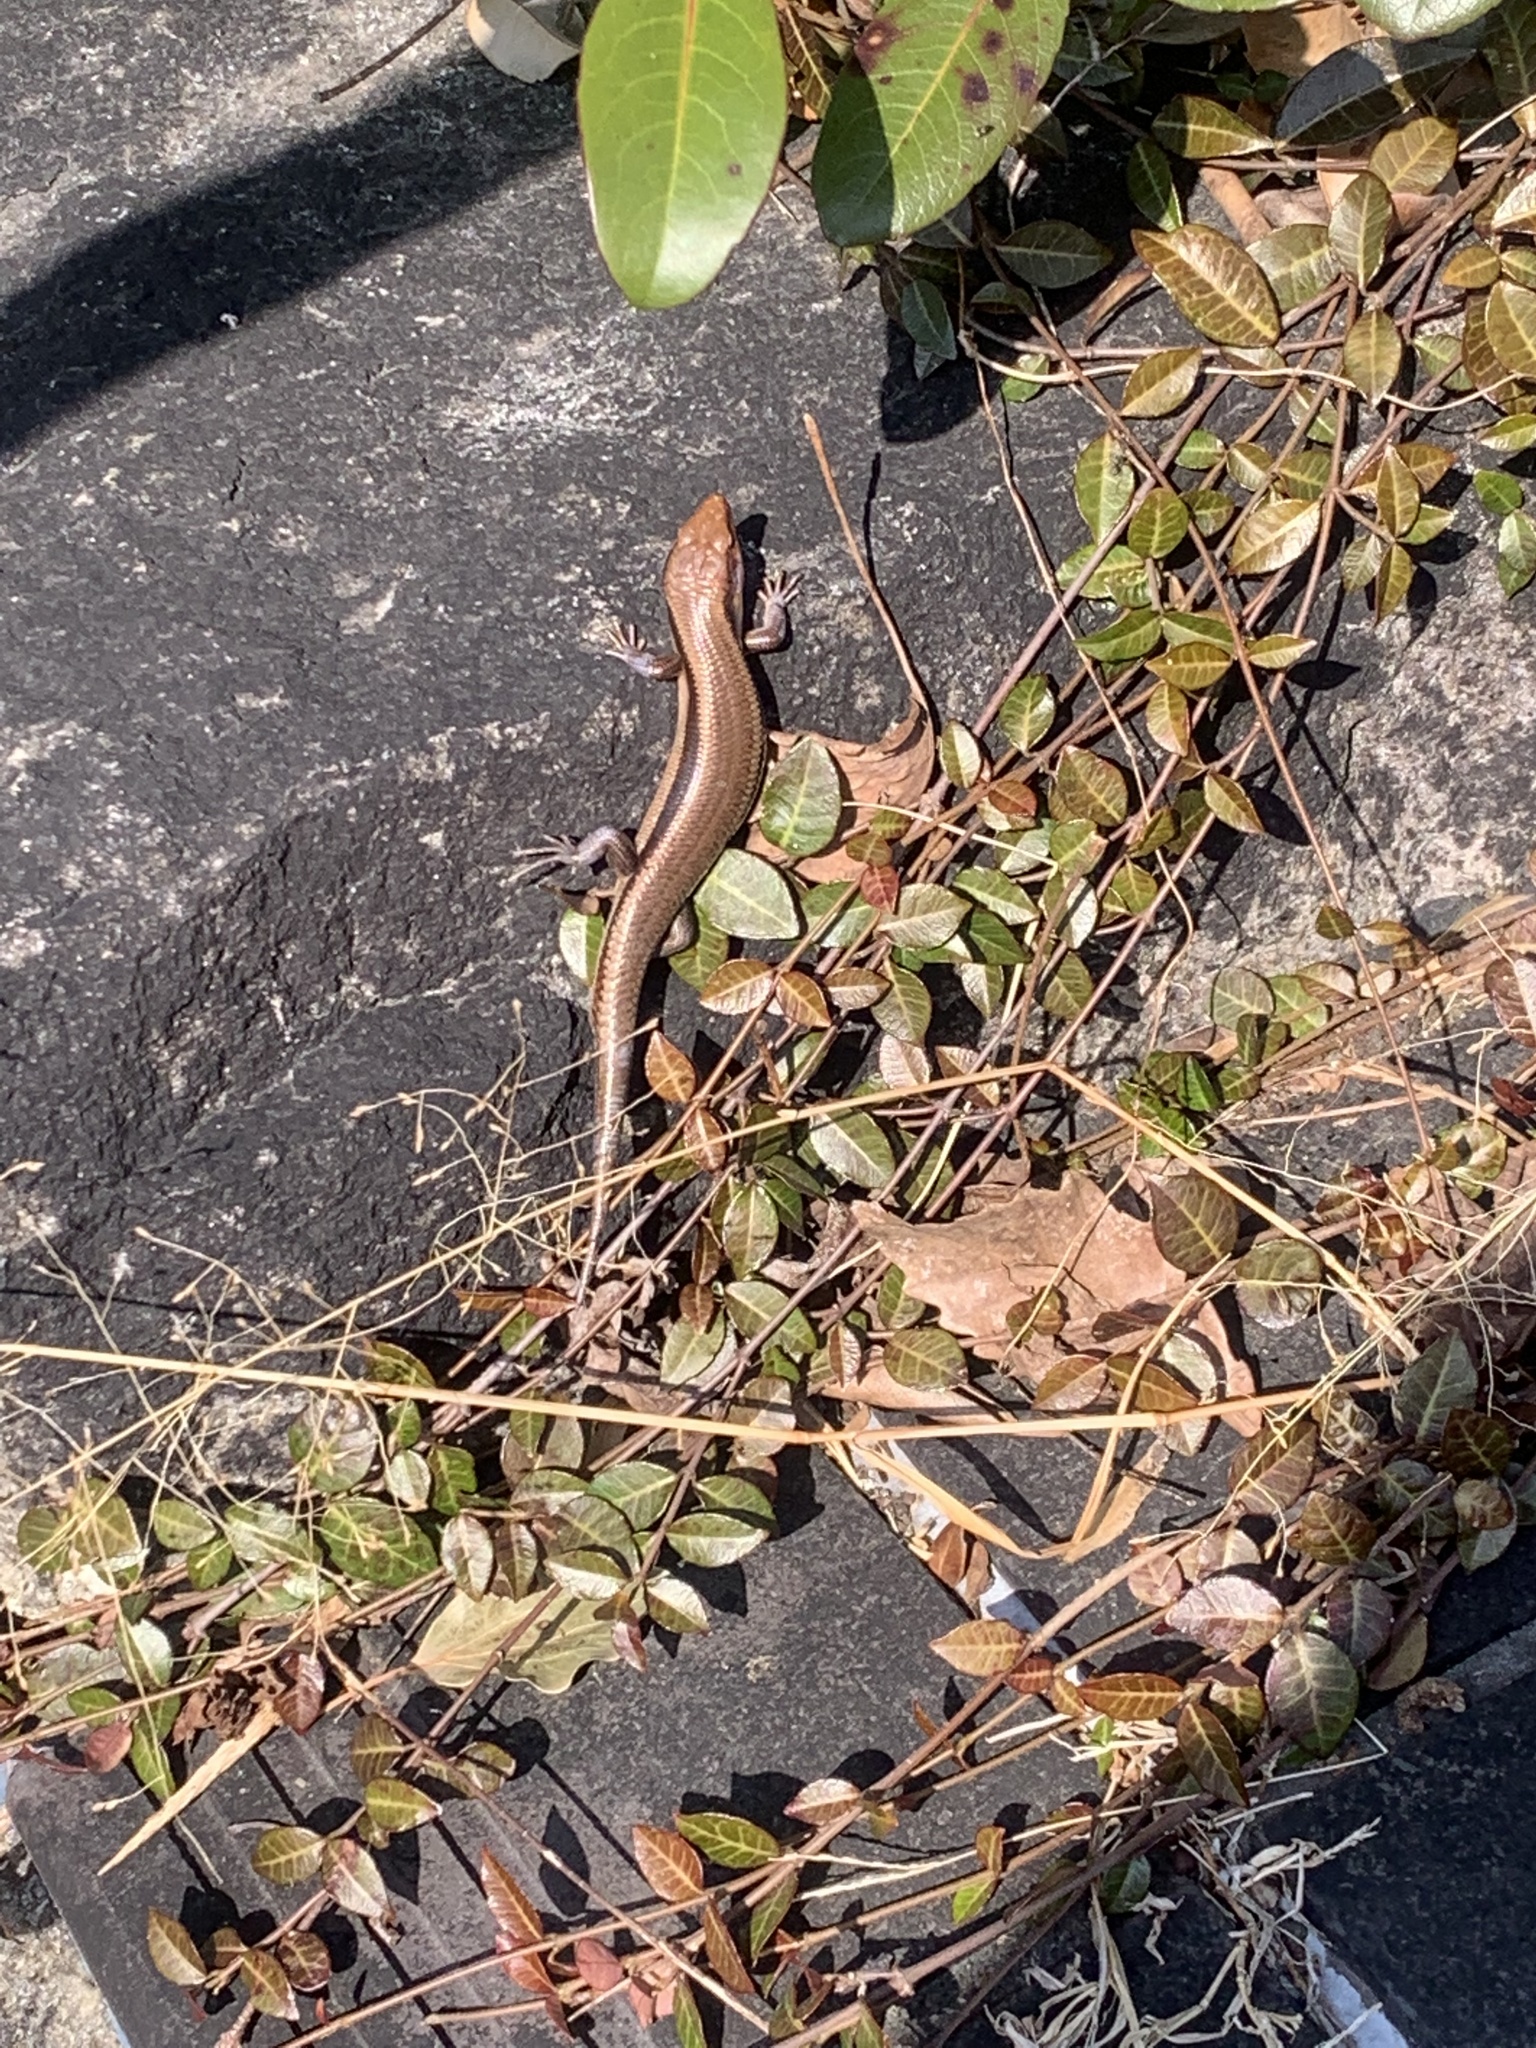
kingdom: Animalia
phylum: Chordata
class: Squamata
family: Scincidae
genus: Plestiodon
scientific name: Plestiodon finitimus
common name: Far eastern skink
